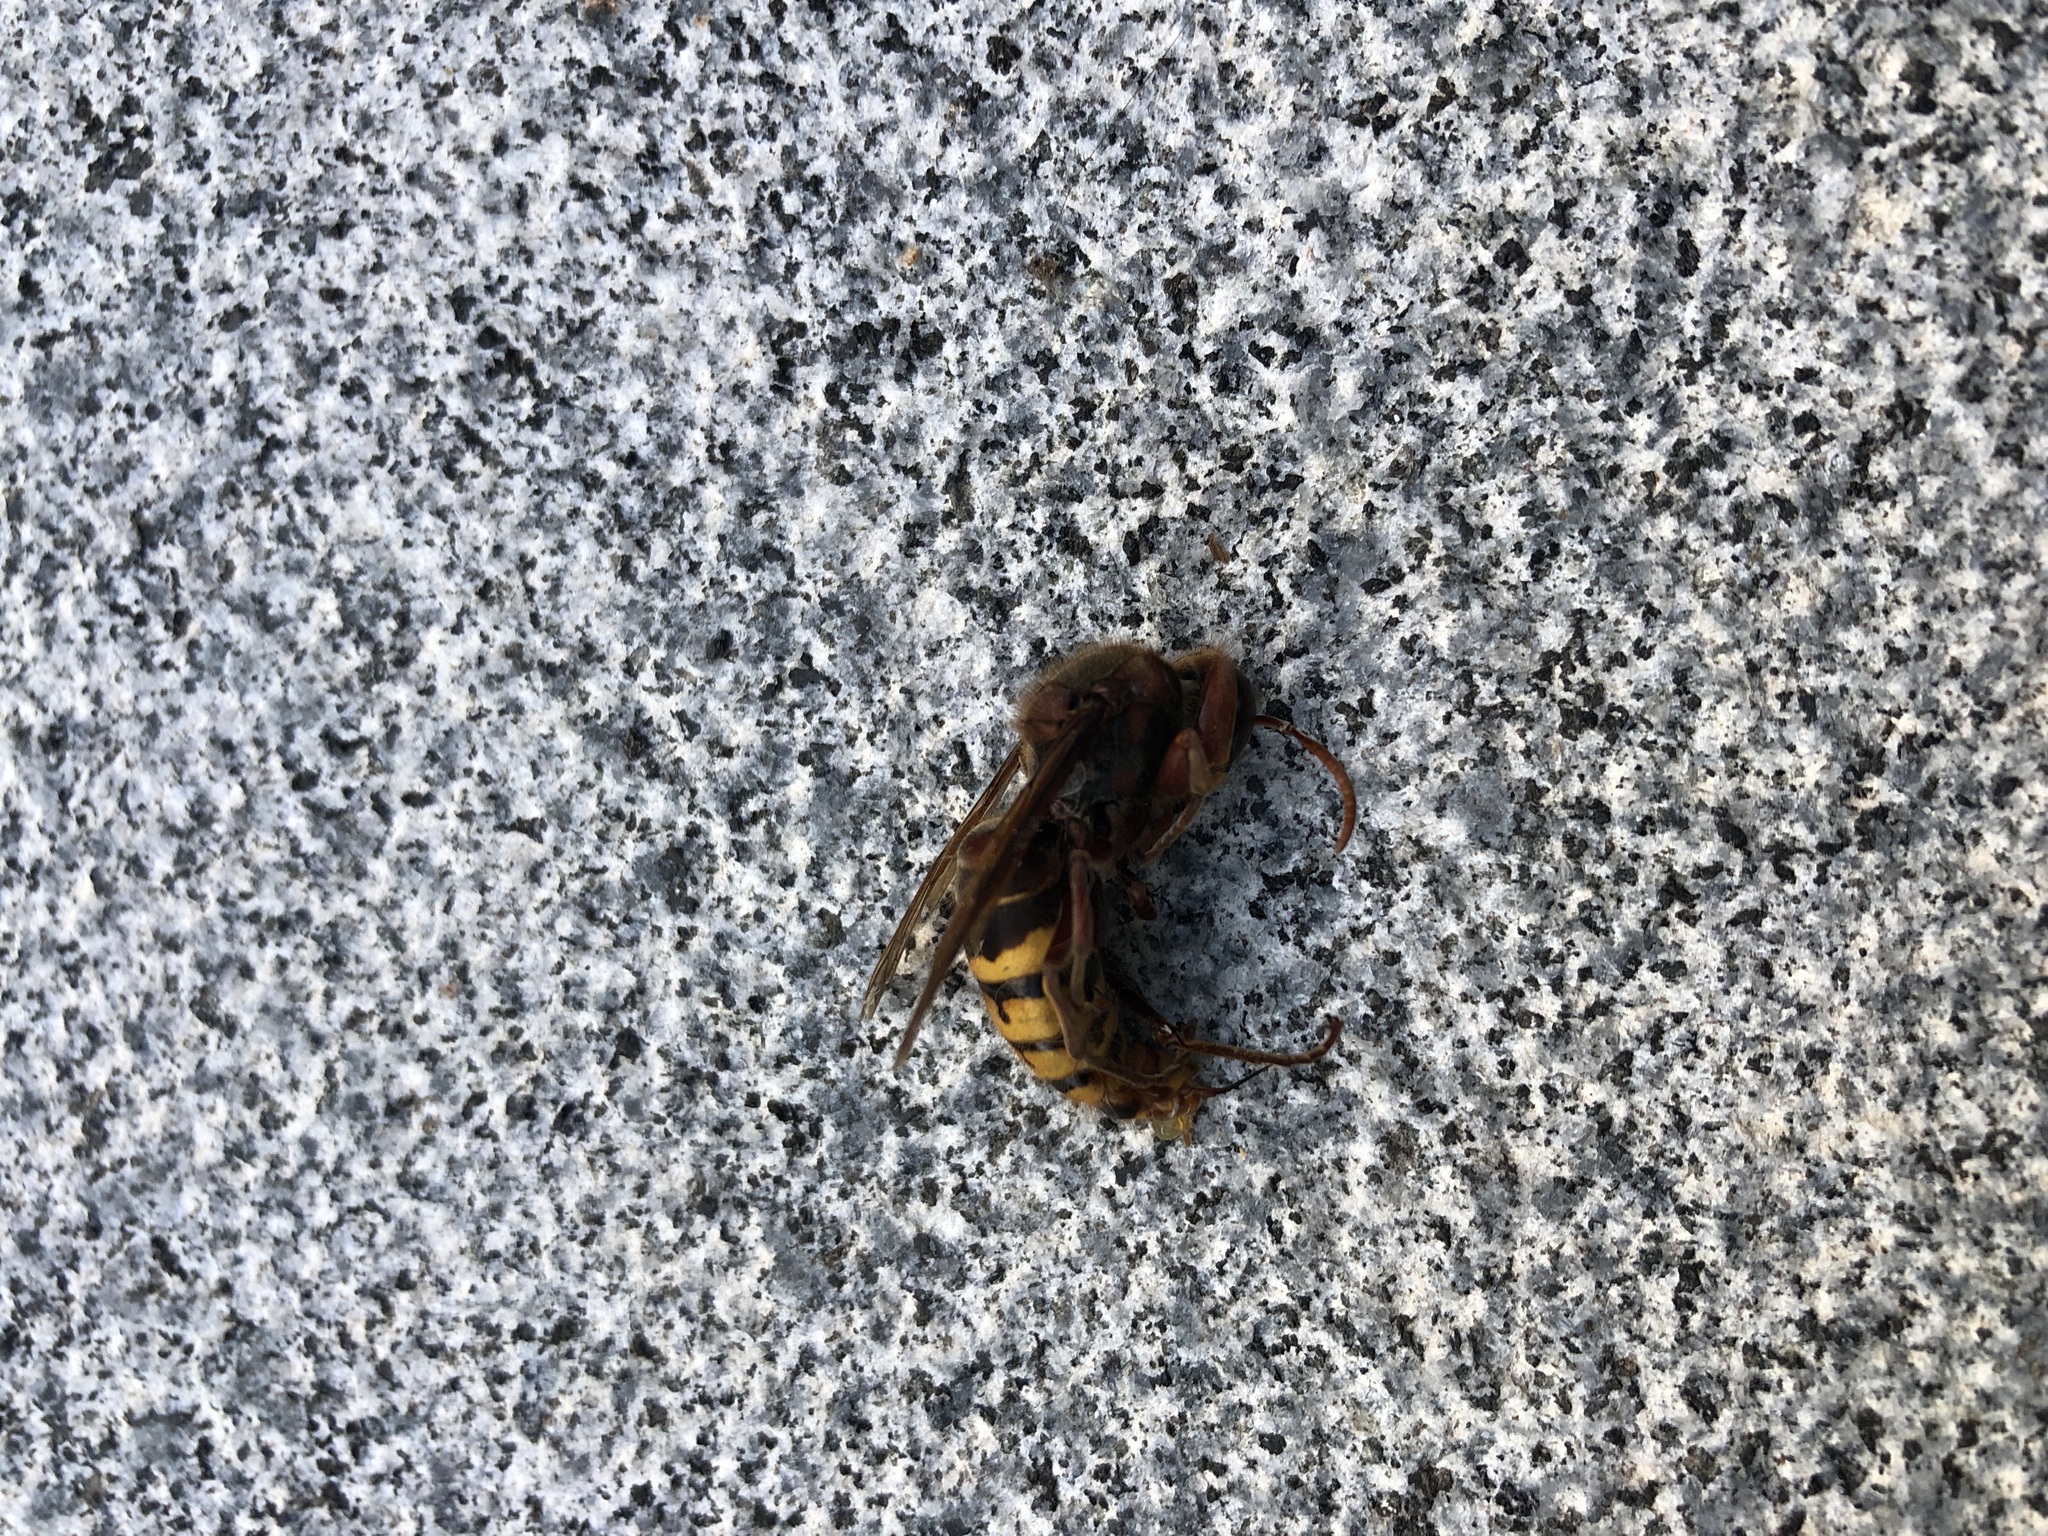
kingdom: Animalia
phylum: Arthropoda
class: Insecta
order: Hymenoptera
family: Vespidae
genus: Vespa
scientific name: Vespa crabro
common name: Hornet
